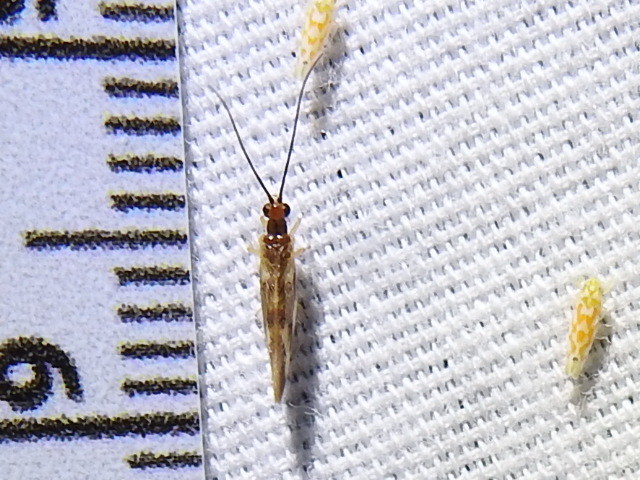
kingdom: Animalia
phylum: Arthropoda
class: Insecta
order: Neuroptera
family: Sisyridae
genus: Climacia
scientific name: Climacia areolaris
